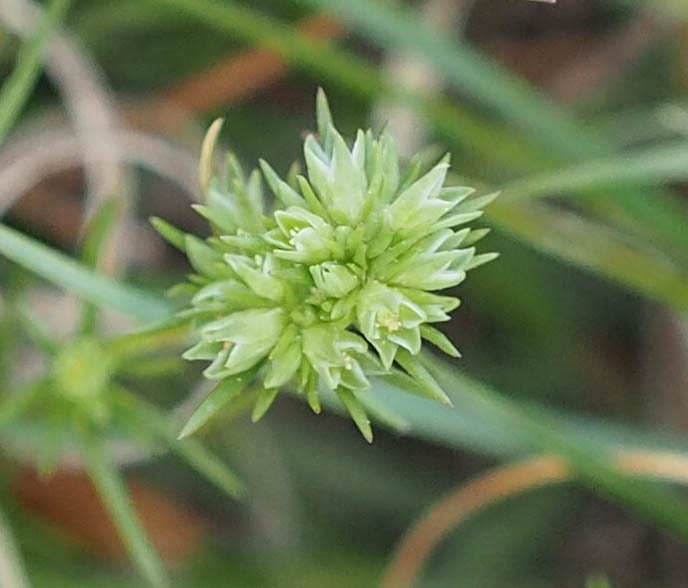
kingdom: Plantae
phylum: Tracheophyta
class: Magnoliopsida
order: Caryophyllales
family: Caryophyllaceae
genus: Scleranthus
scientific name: Scleranthus annuus
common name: Annual knawel
